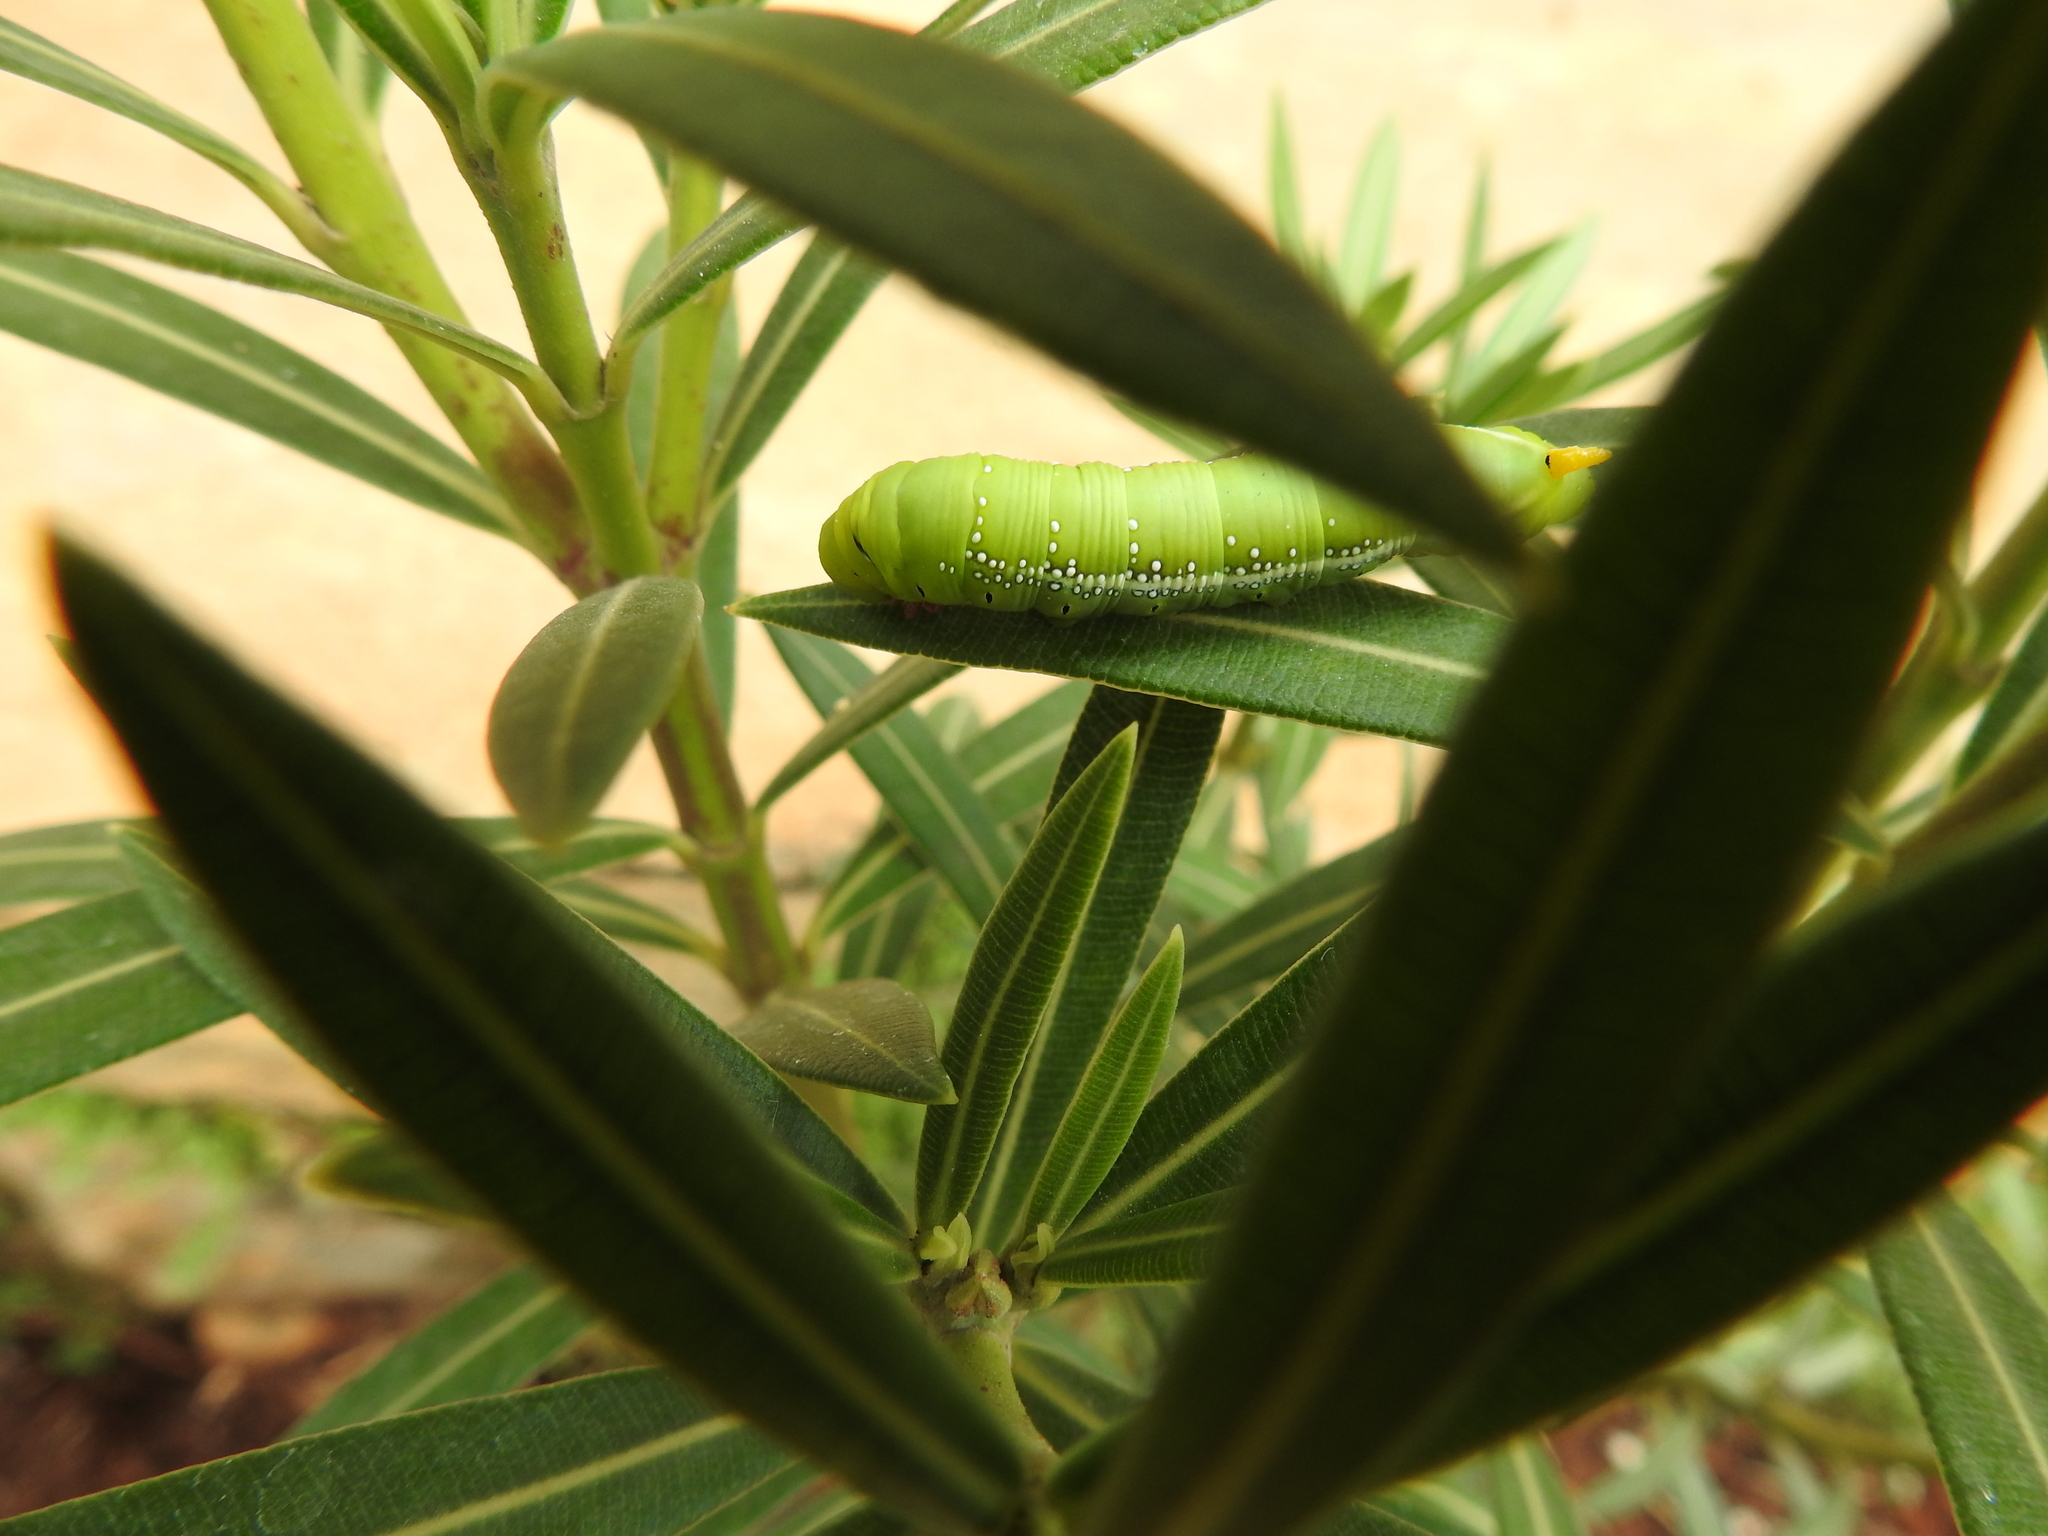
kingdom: Animalia
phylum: Arthropoda
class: Insecta
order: Lepidoptera
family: Sphingidae
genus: Daphnis
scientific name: Daphnis nerii
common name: Oleander hawk-moth
